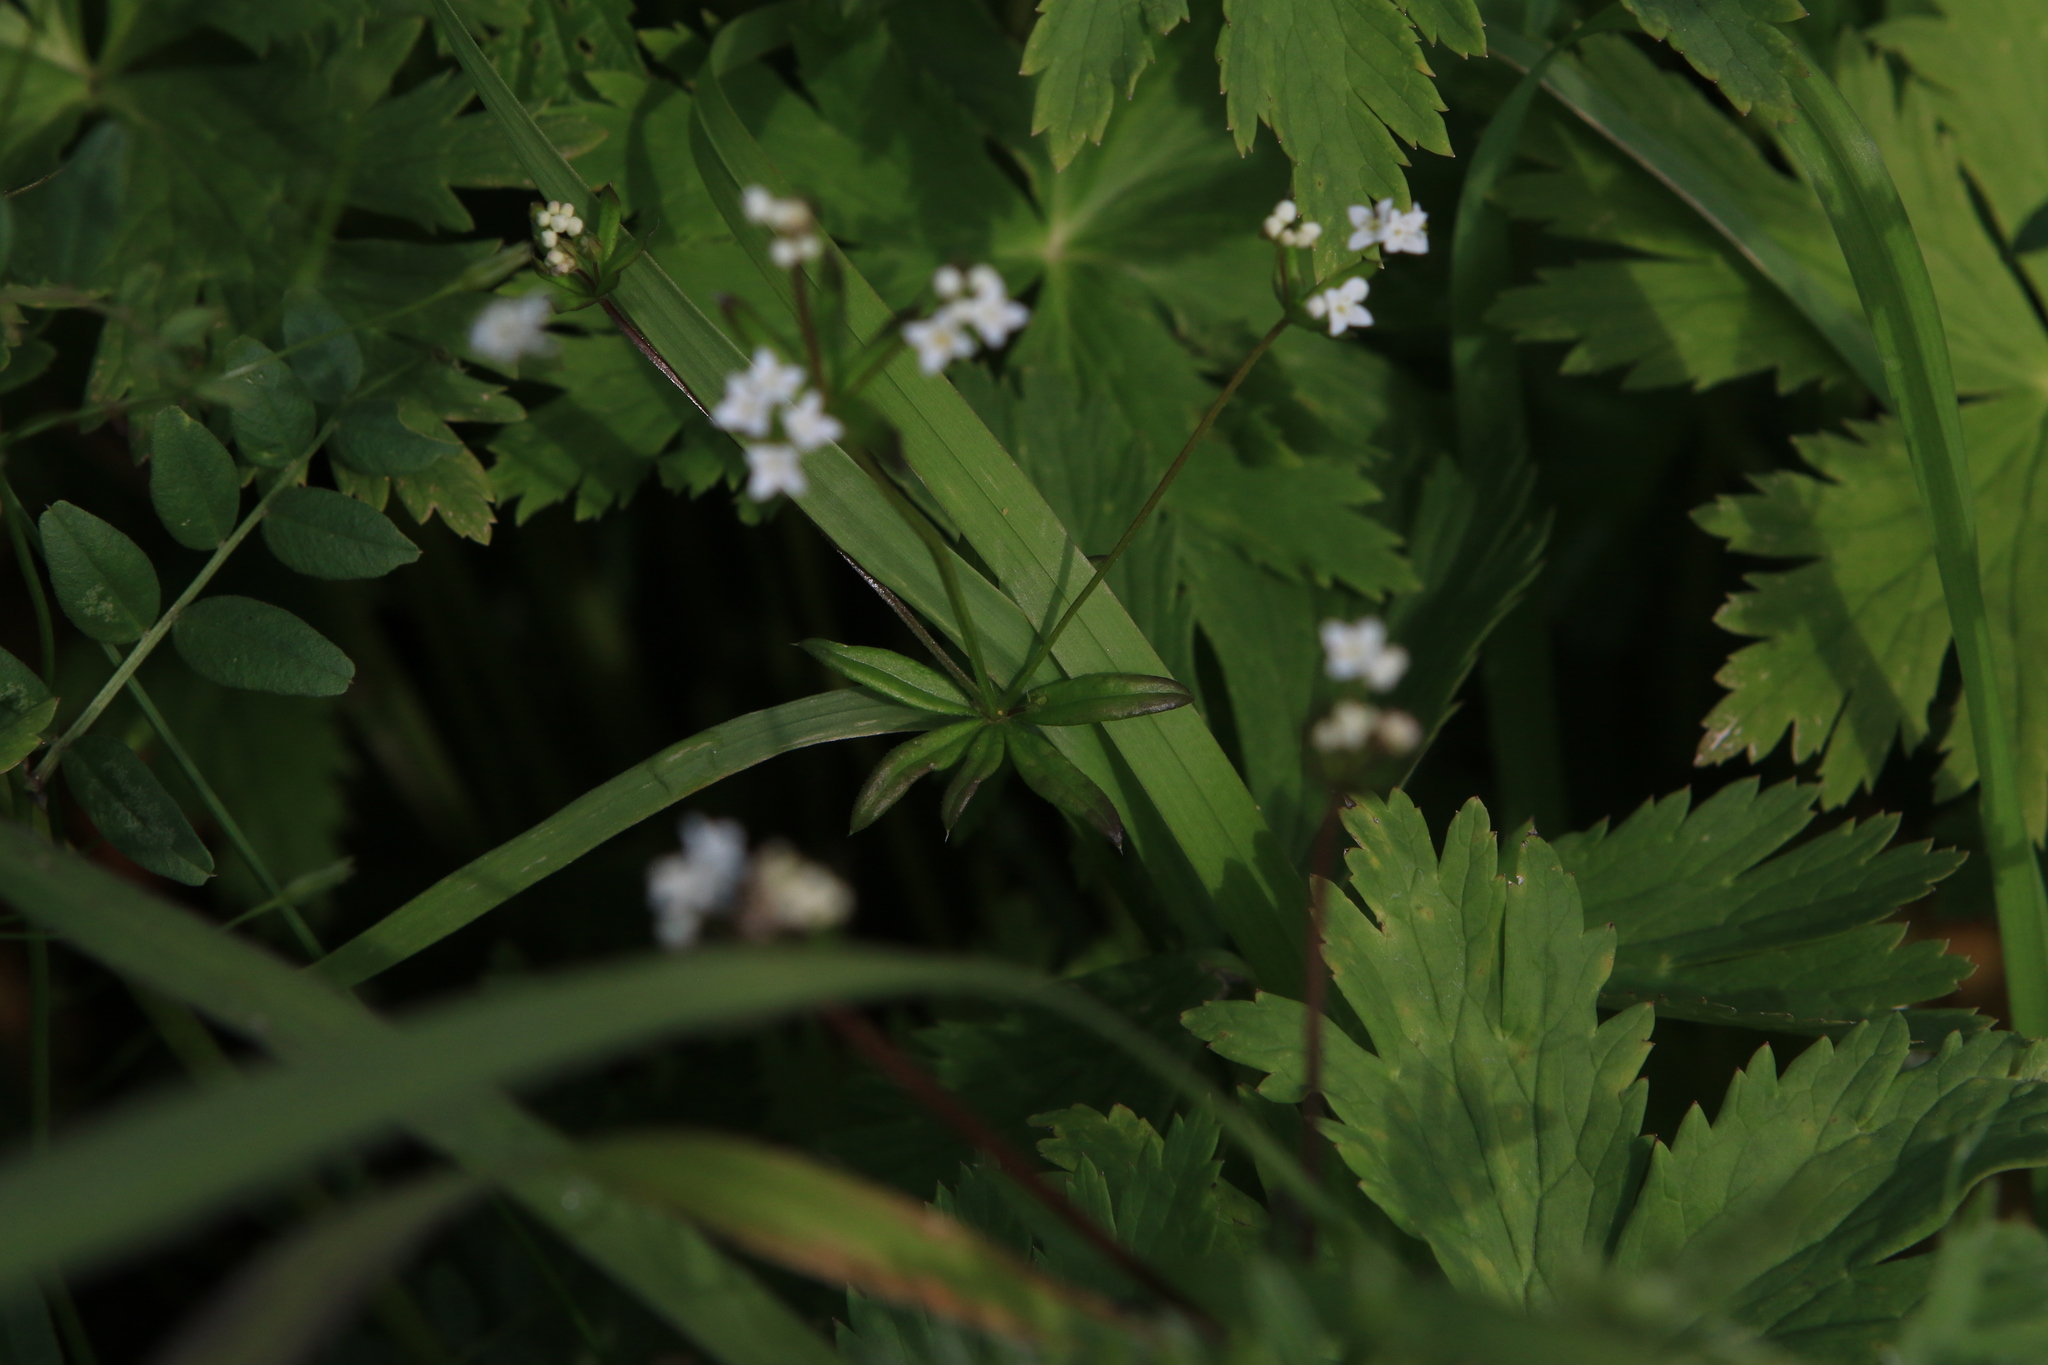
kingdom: Plantae
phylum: Tracheophyta
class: Magnoliopsida
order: Gentianales
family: Rubiaceae
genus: Galium
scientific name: Galium uliginosum
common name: Fen bedstraw
